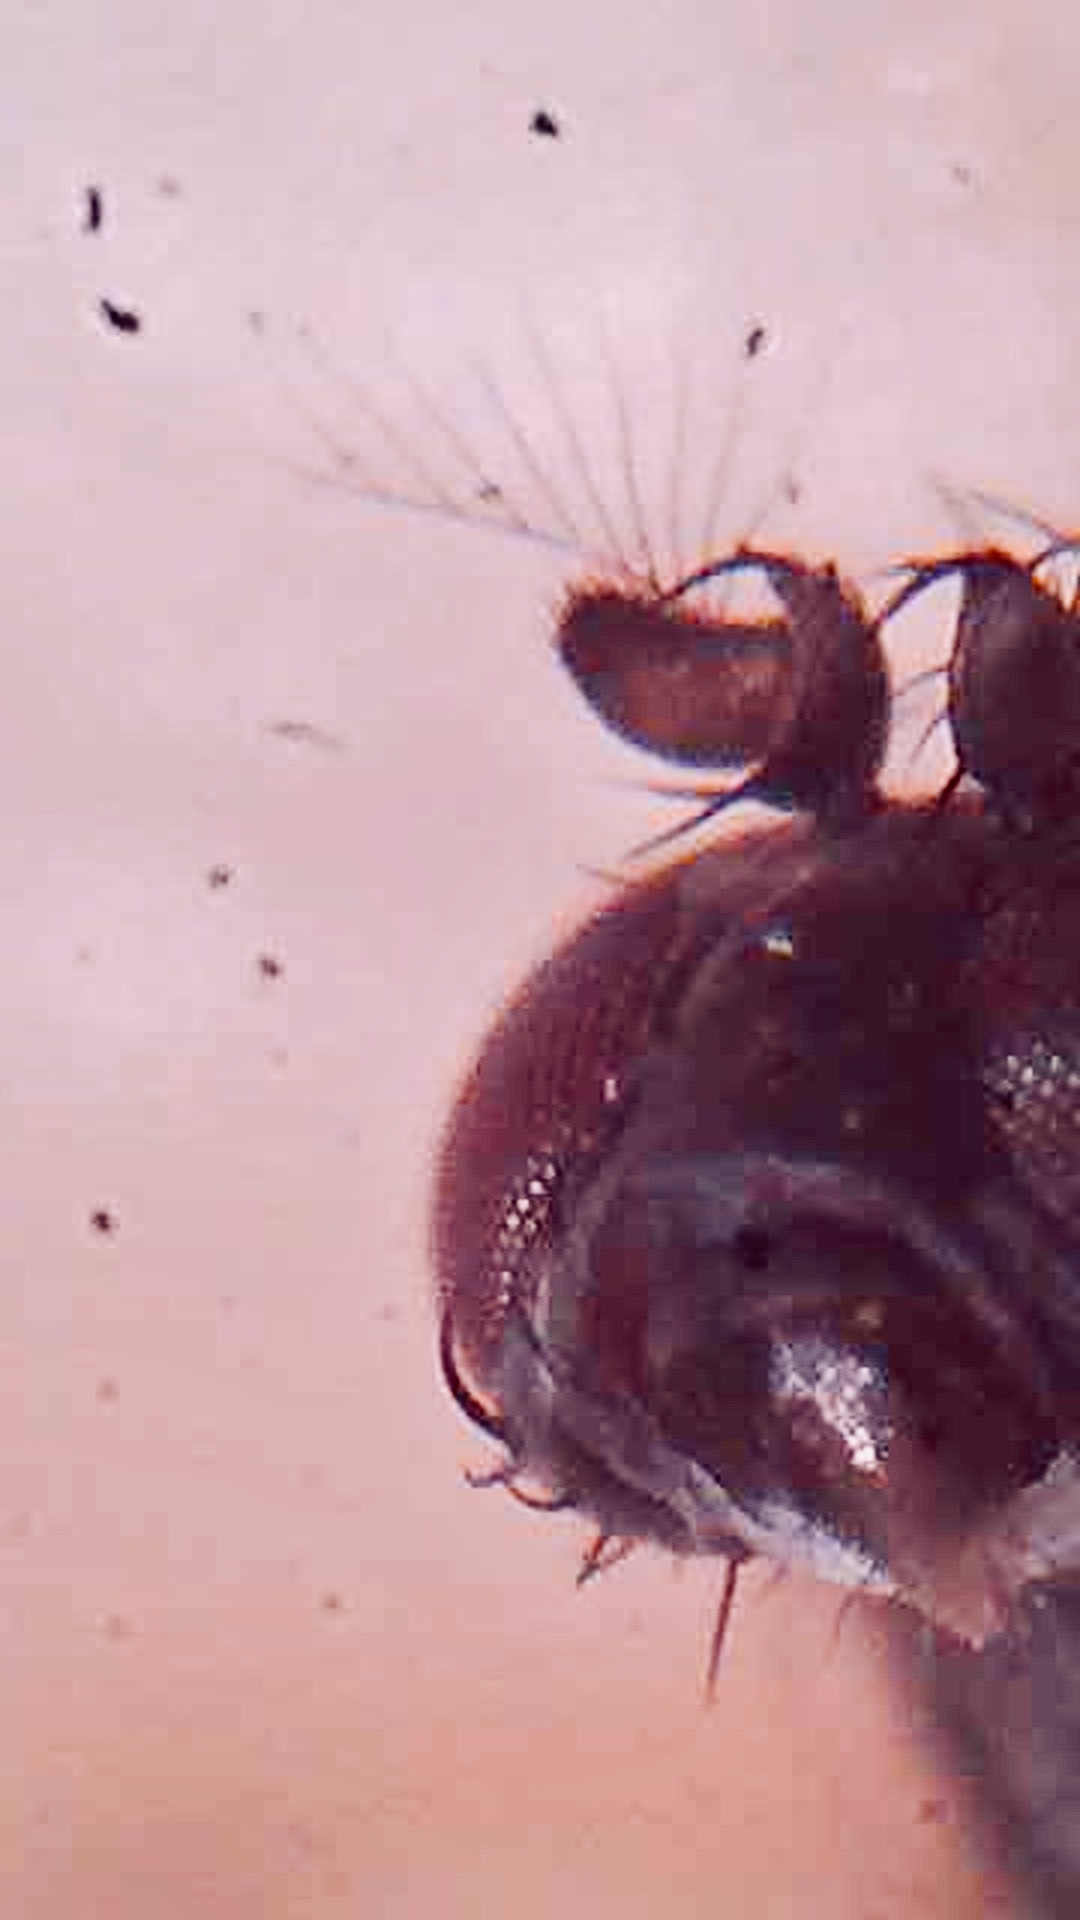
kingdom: Animalia
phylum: Arthropoda
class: Insecta
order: Diptera
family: Ephydridae
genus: Clasiopella
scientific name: Clasiopella austra
